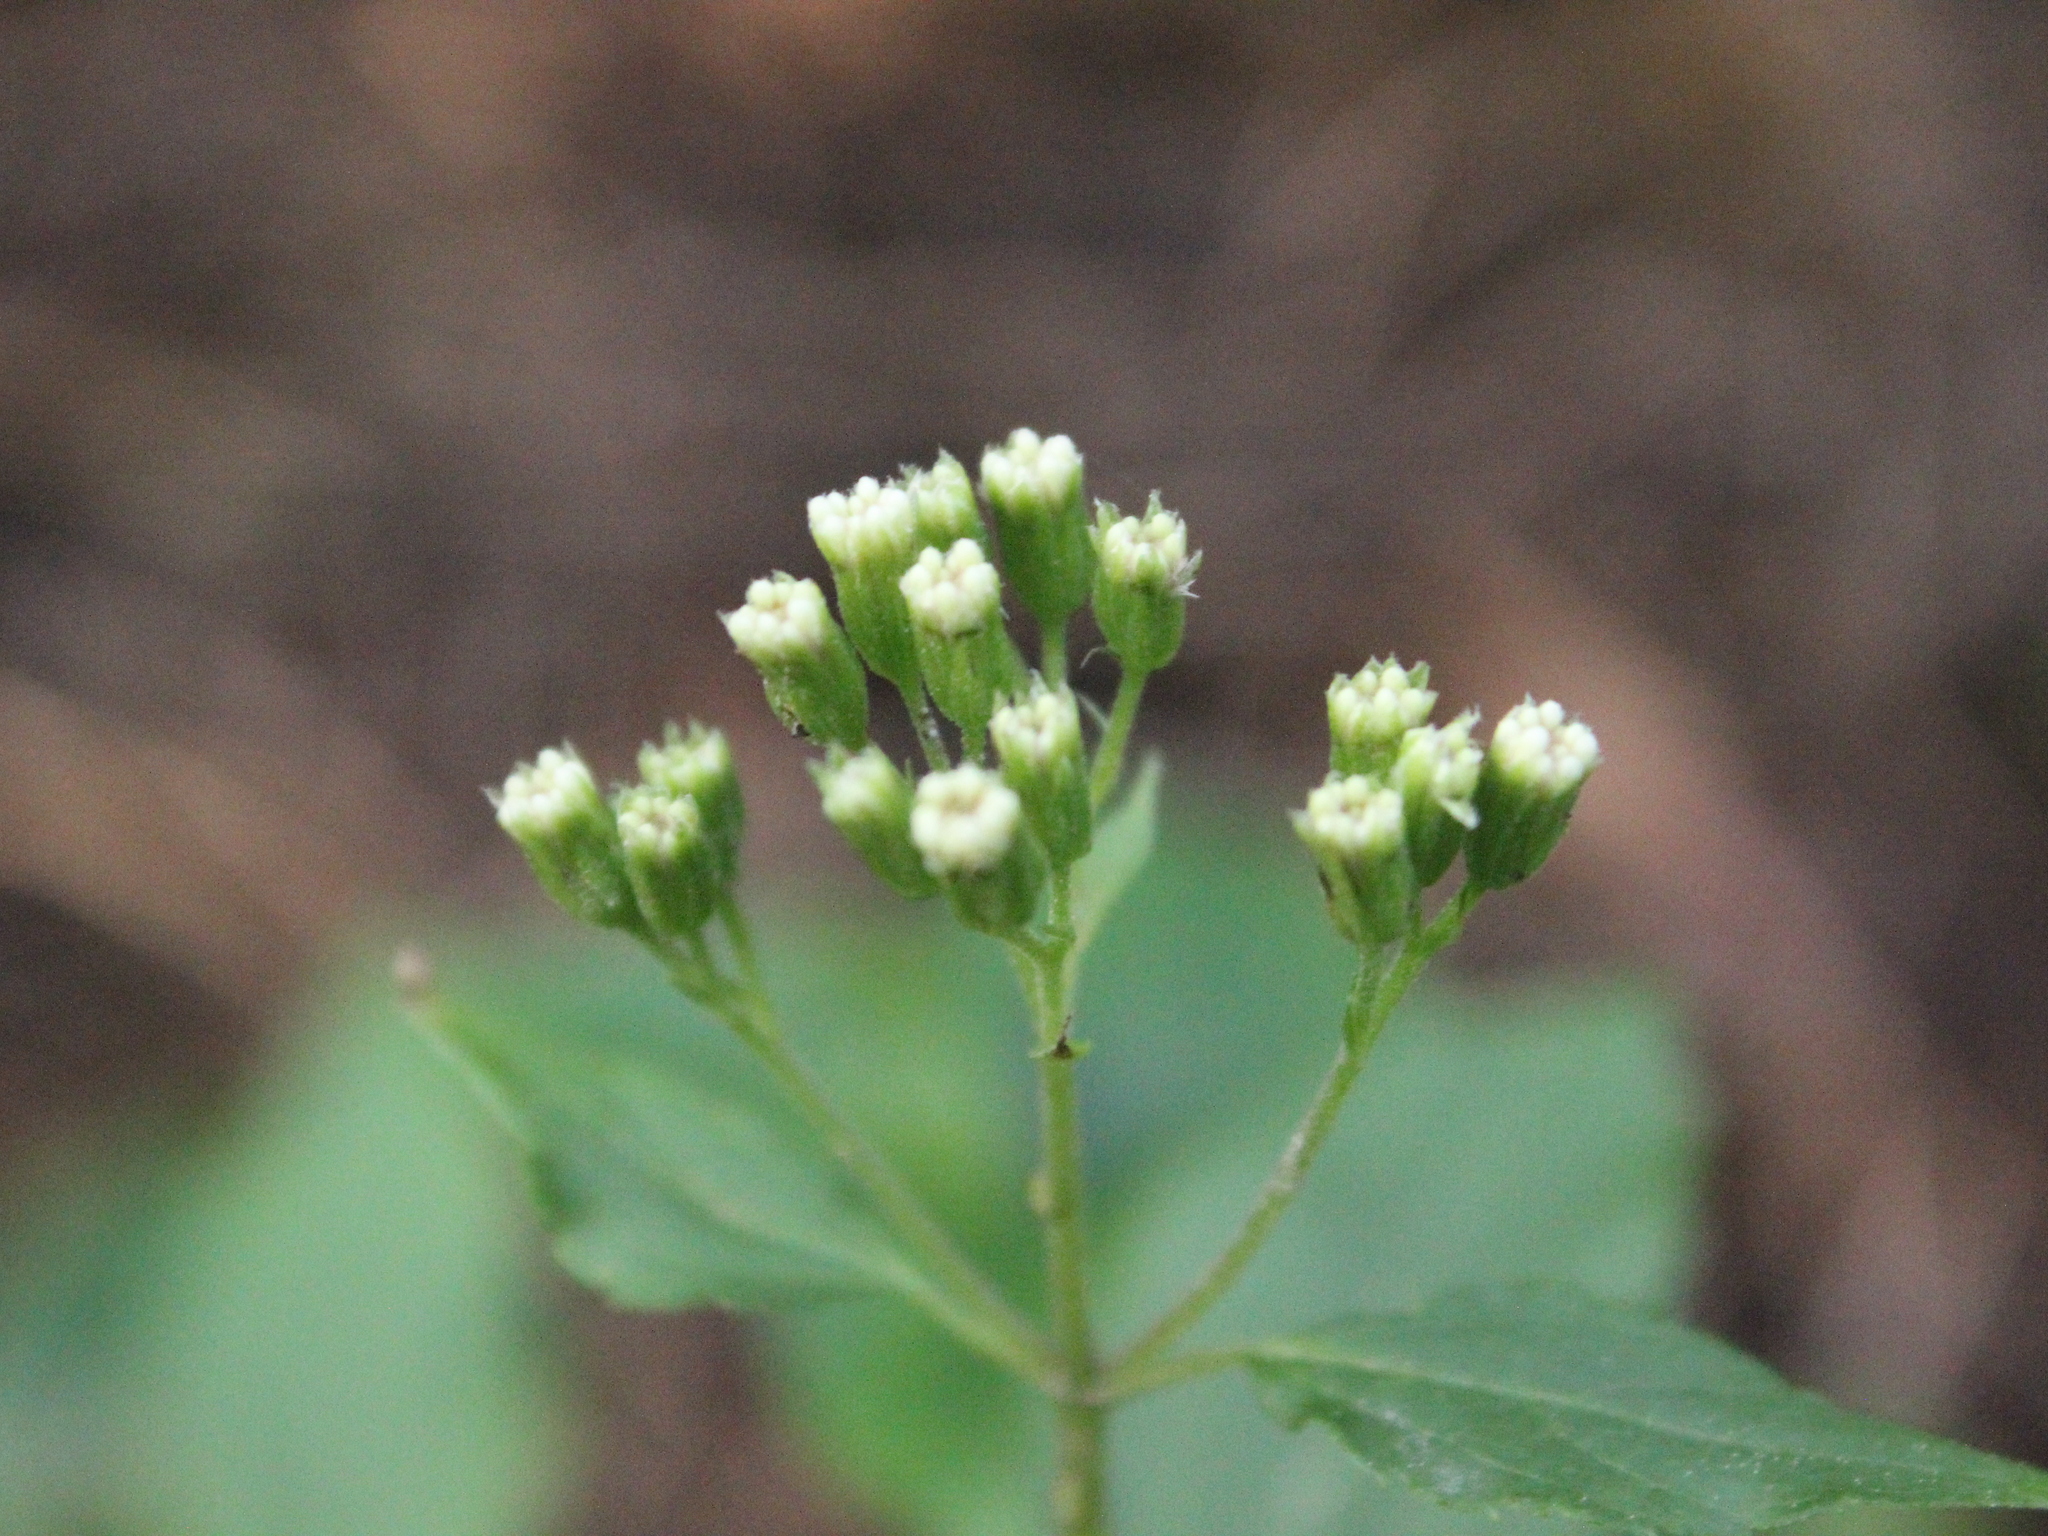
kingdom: Plantae
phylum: Tracheophyta
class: Magnoliopsida
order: Asterales
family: Asteraceae
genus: Ageratina
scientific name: Ageratina riparia
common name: Creeping croftonweed
